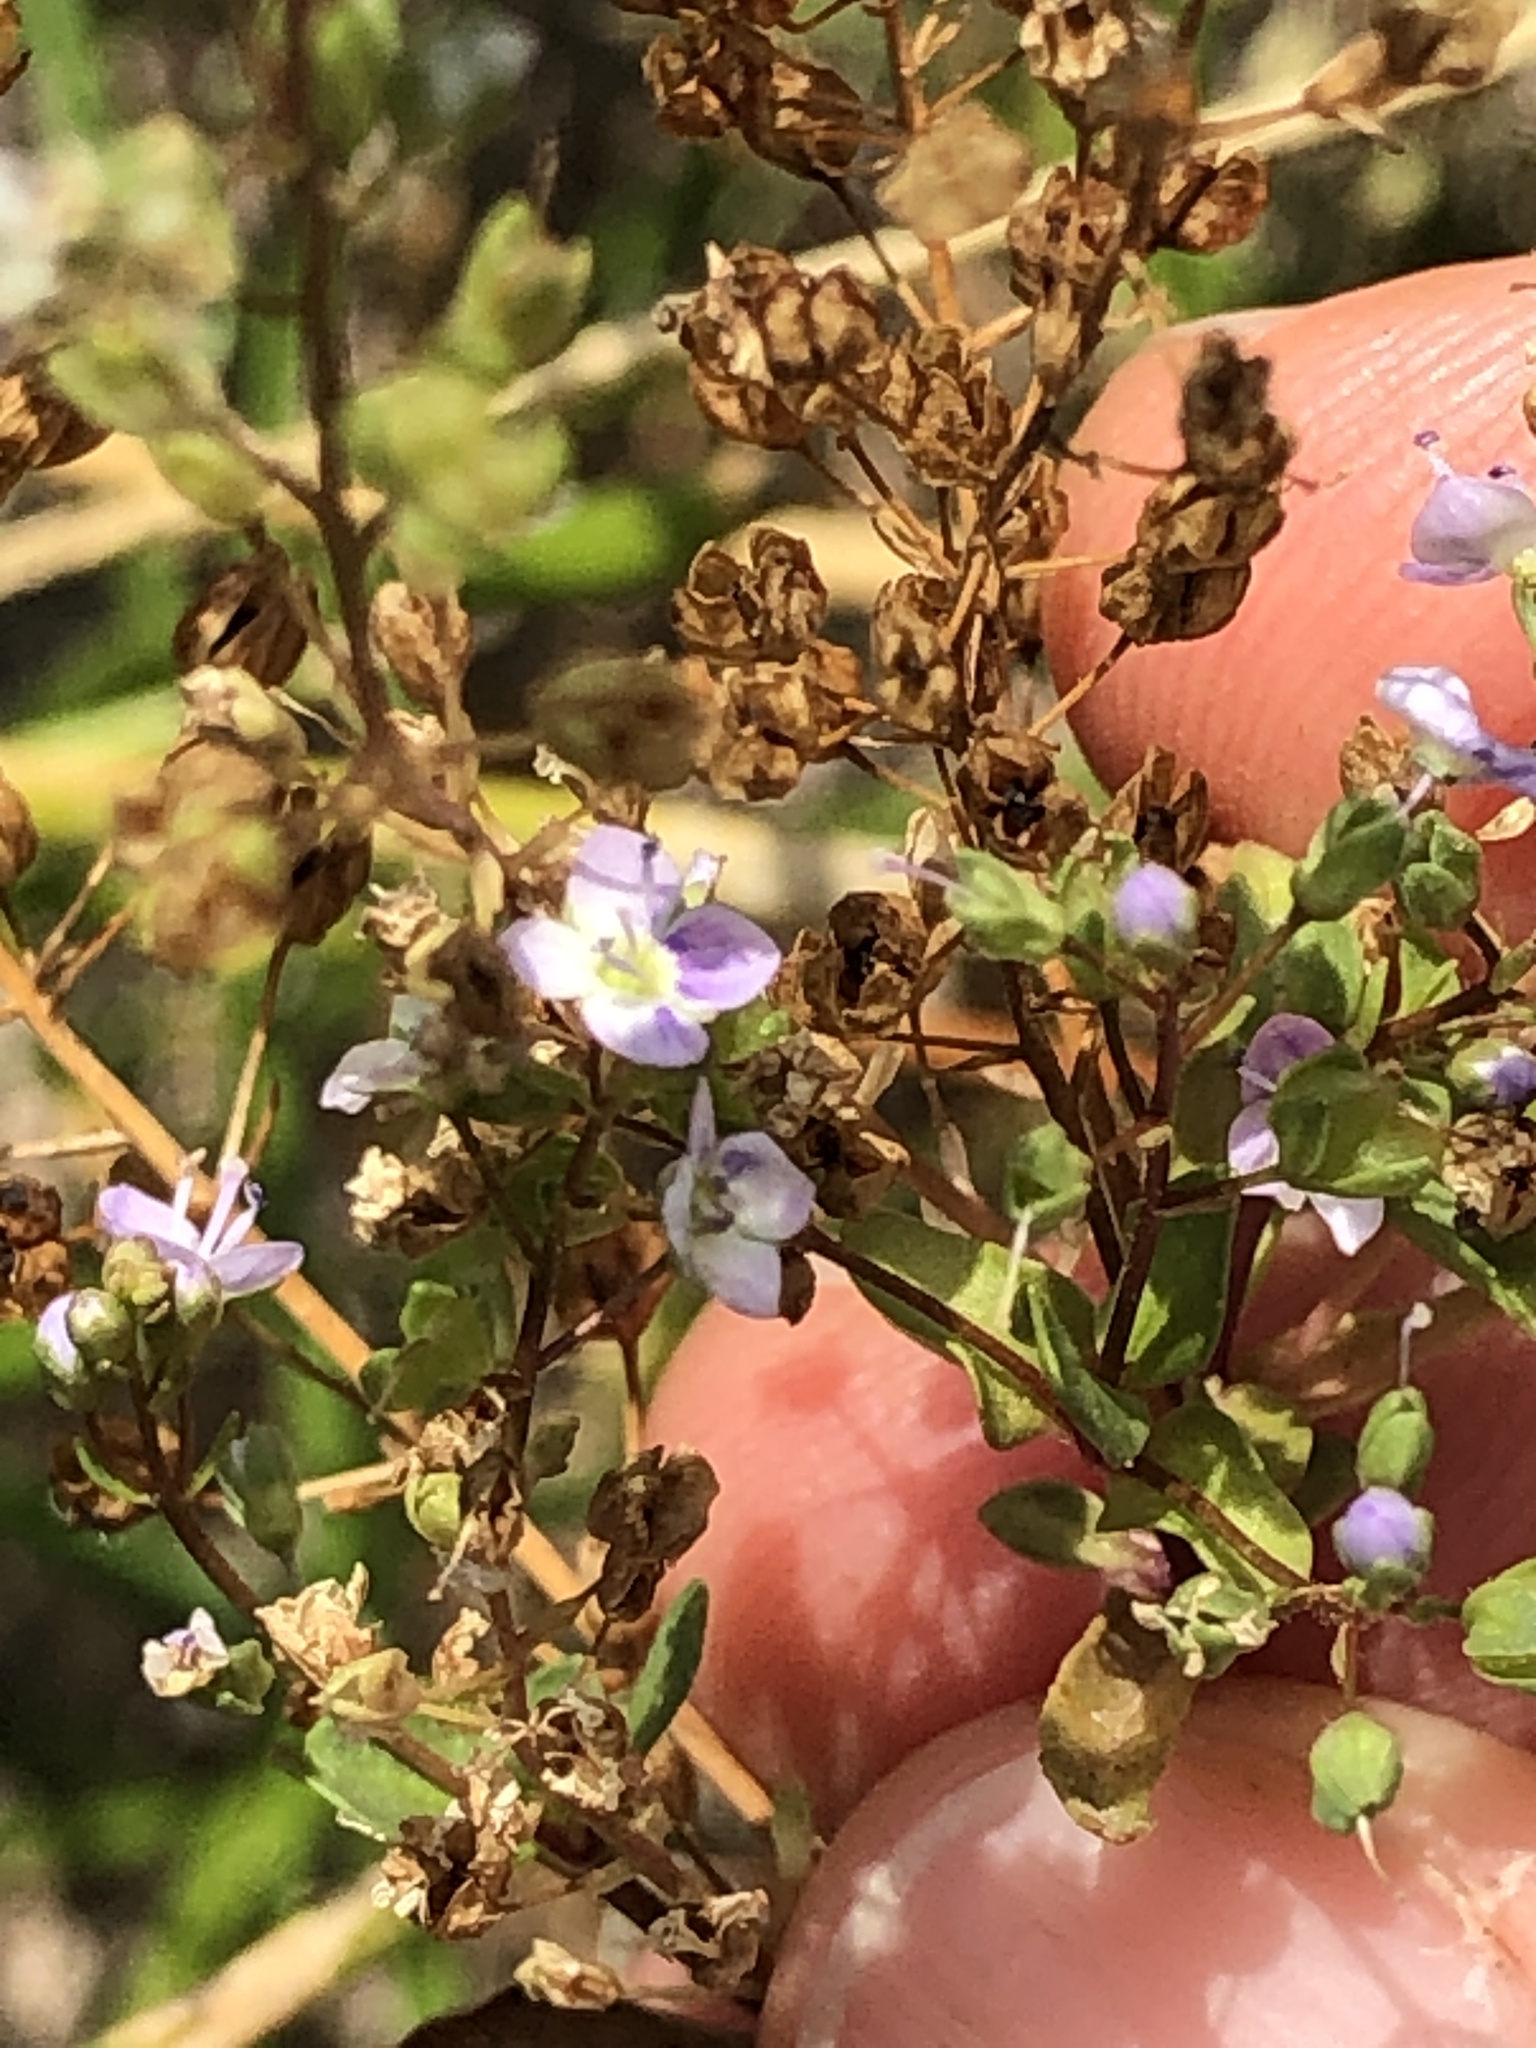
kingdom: Plantae
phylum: Tracheophyta
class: Magnoliopsida
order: Lamiales
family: Plantaginaceae
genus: Veronica
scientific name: Veronica anagallis-aquatica
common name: Water speedwell
